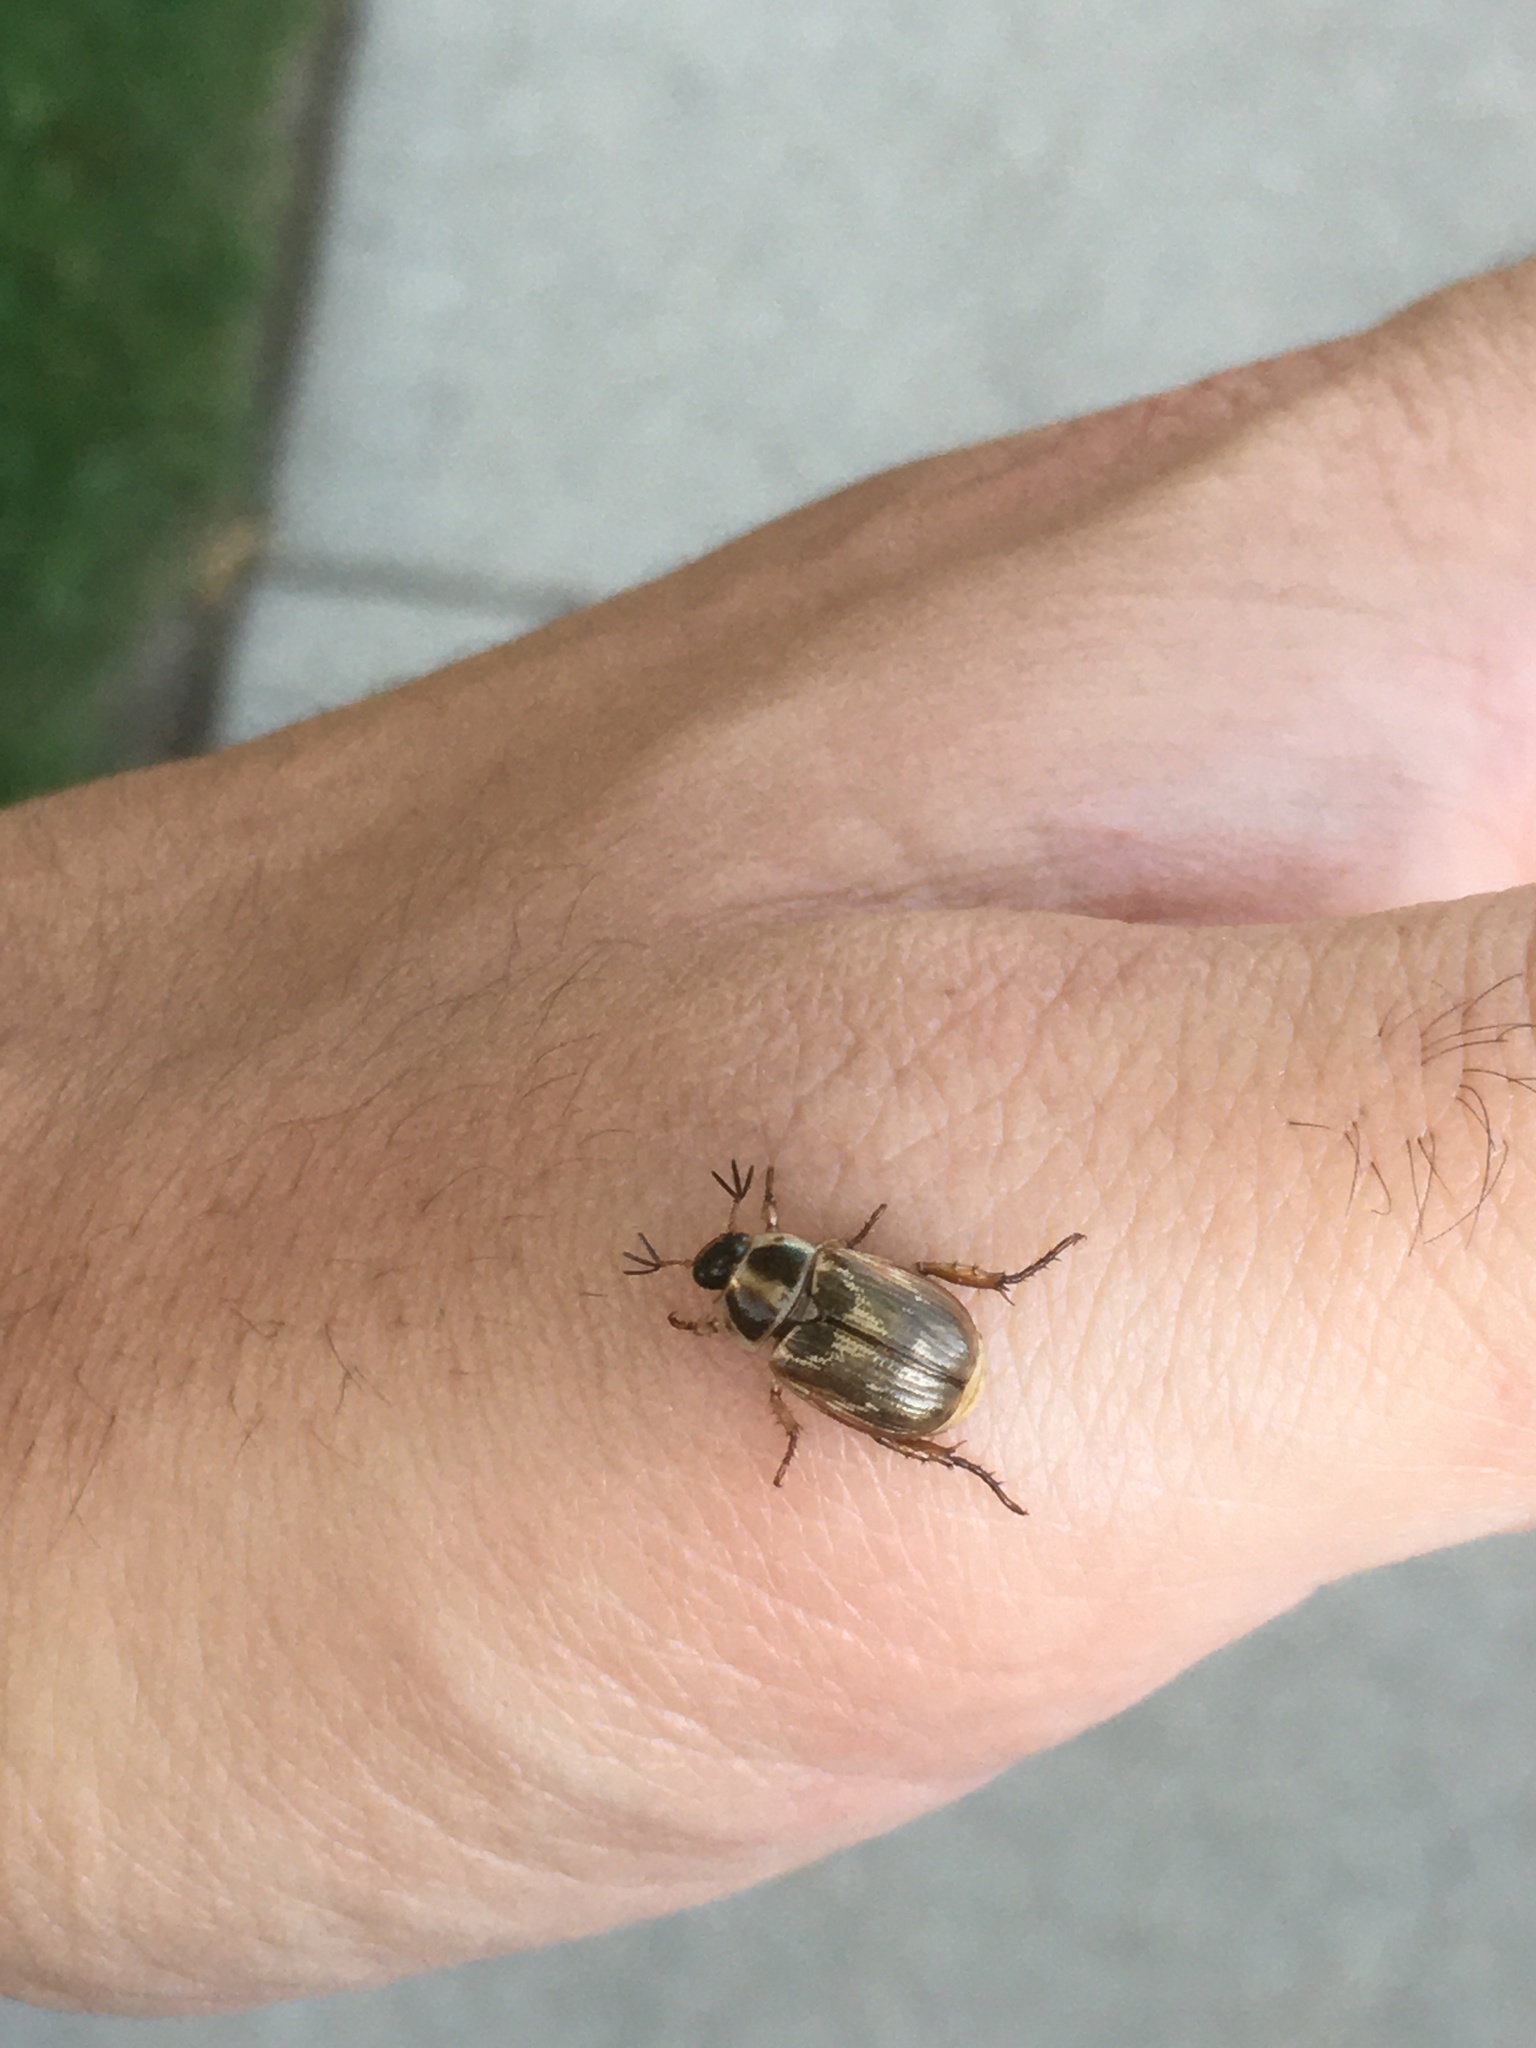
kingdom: Animalia
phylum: Arthropoda
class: Insecta
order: Coleoptera
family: Scarabaeidae
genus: Exomala
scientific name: Exomala orientalis
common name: Oriental beetle
